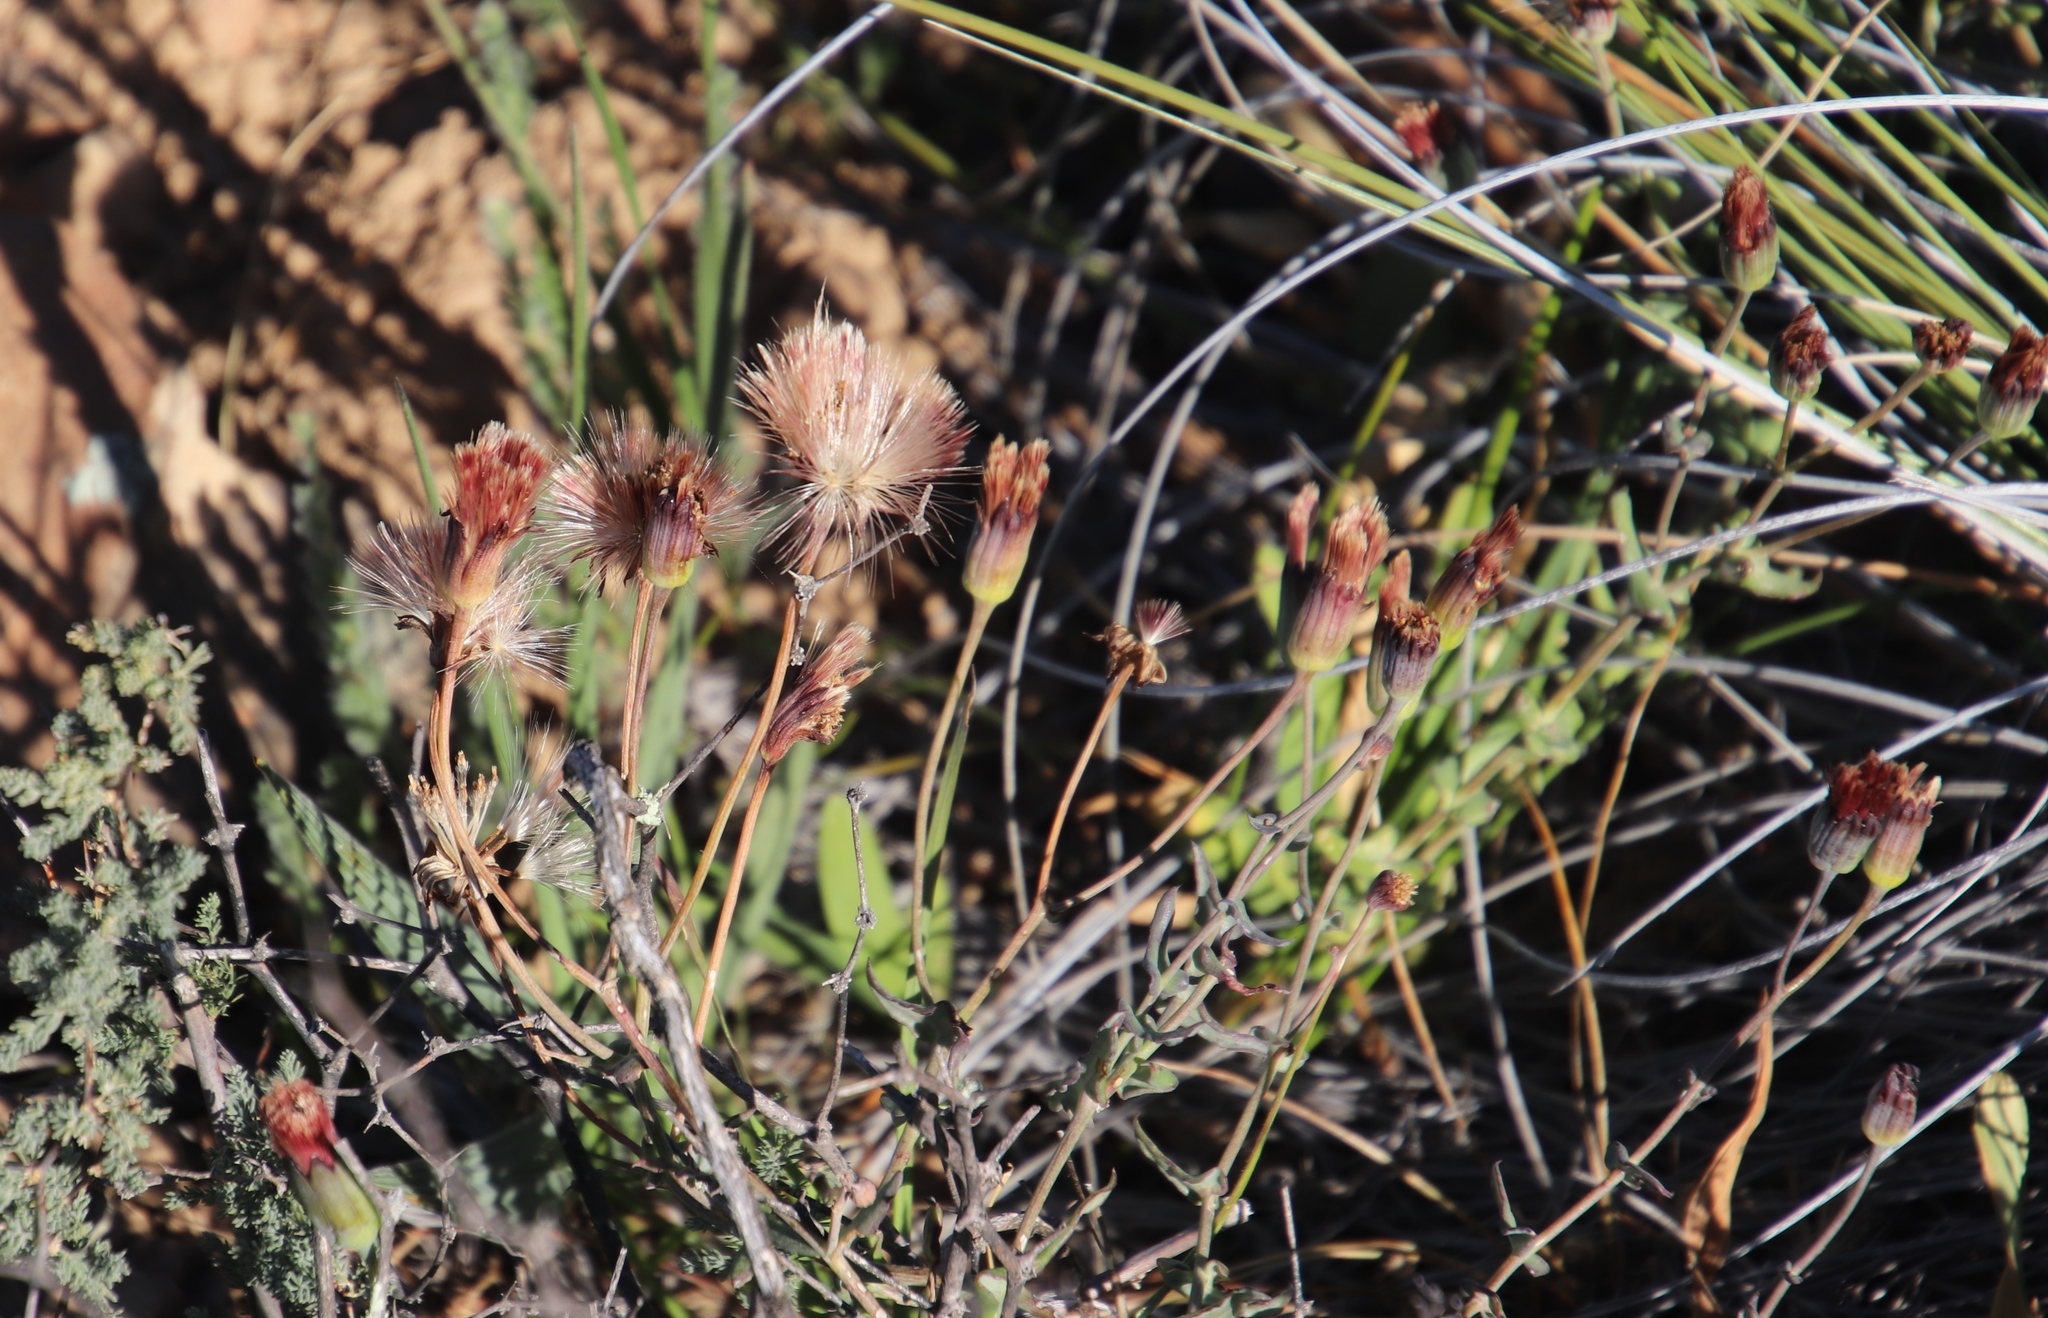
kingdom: Plantae
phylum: Tracheophyta
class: Magnoliopsida
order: Asterales
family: Asteraceae
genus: Othonna
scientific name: Othonna undulosa
